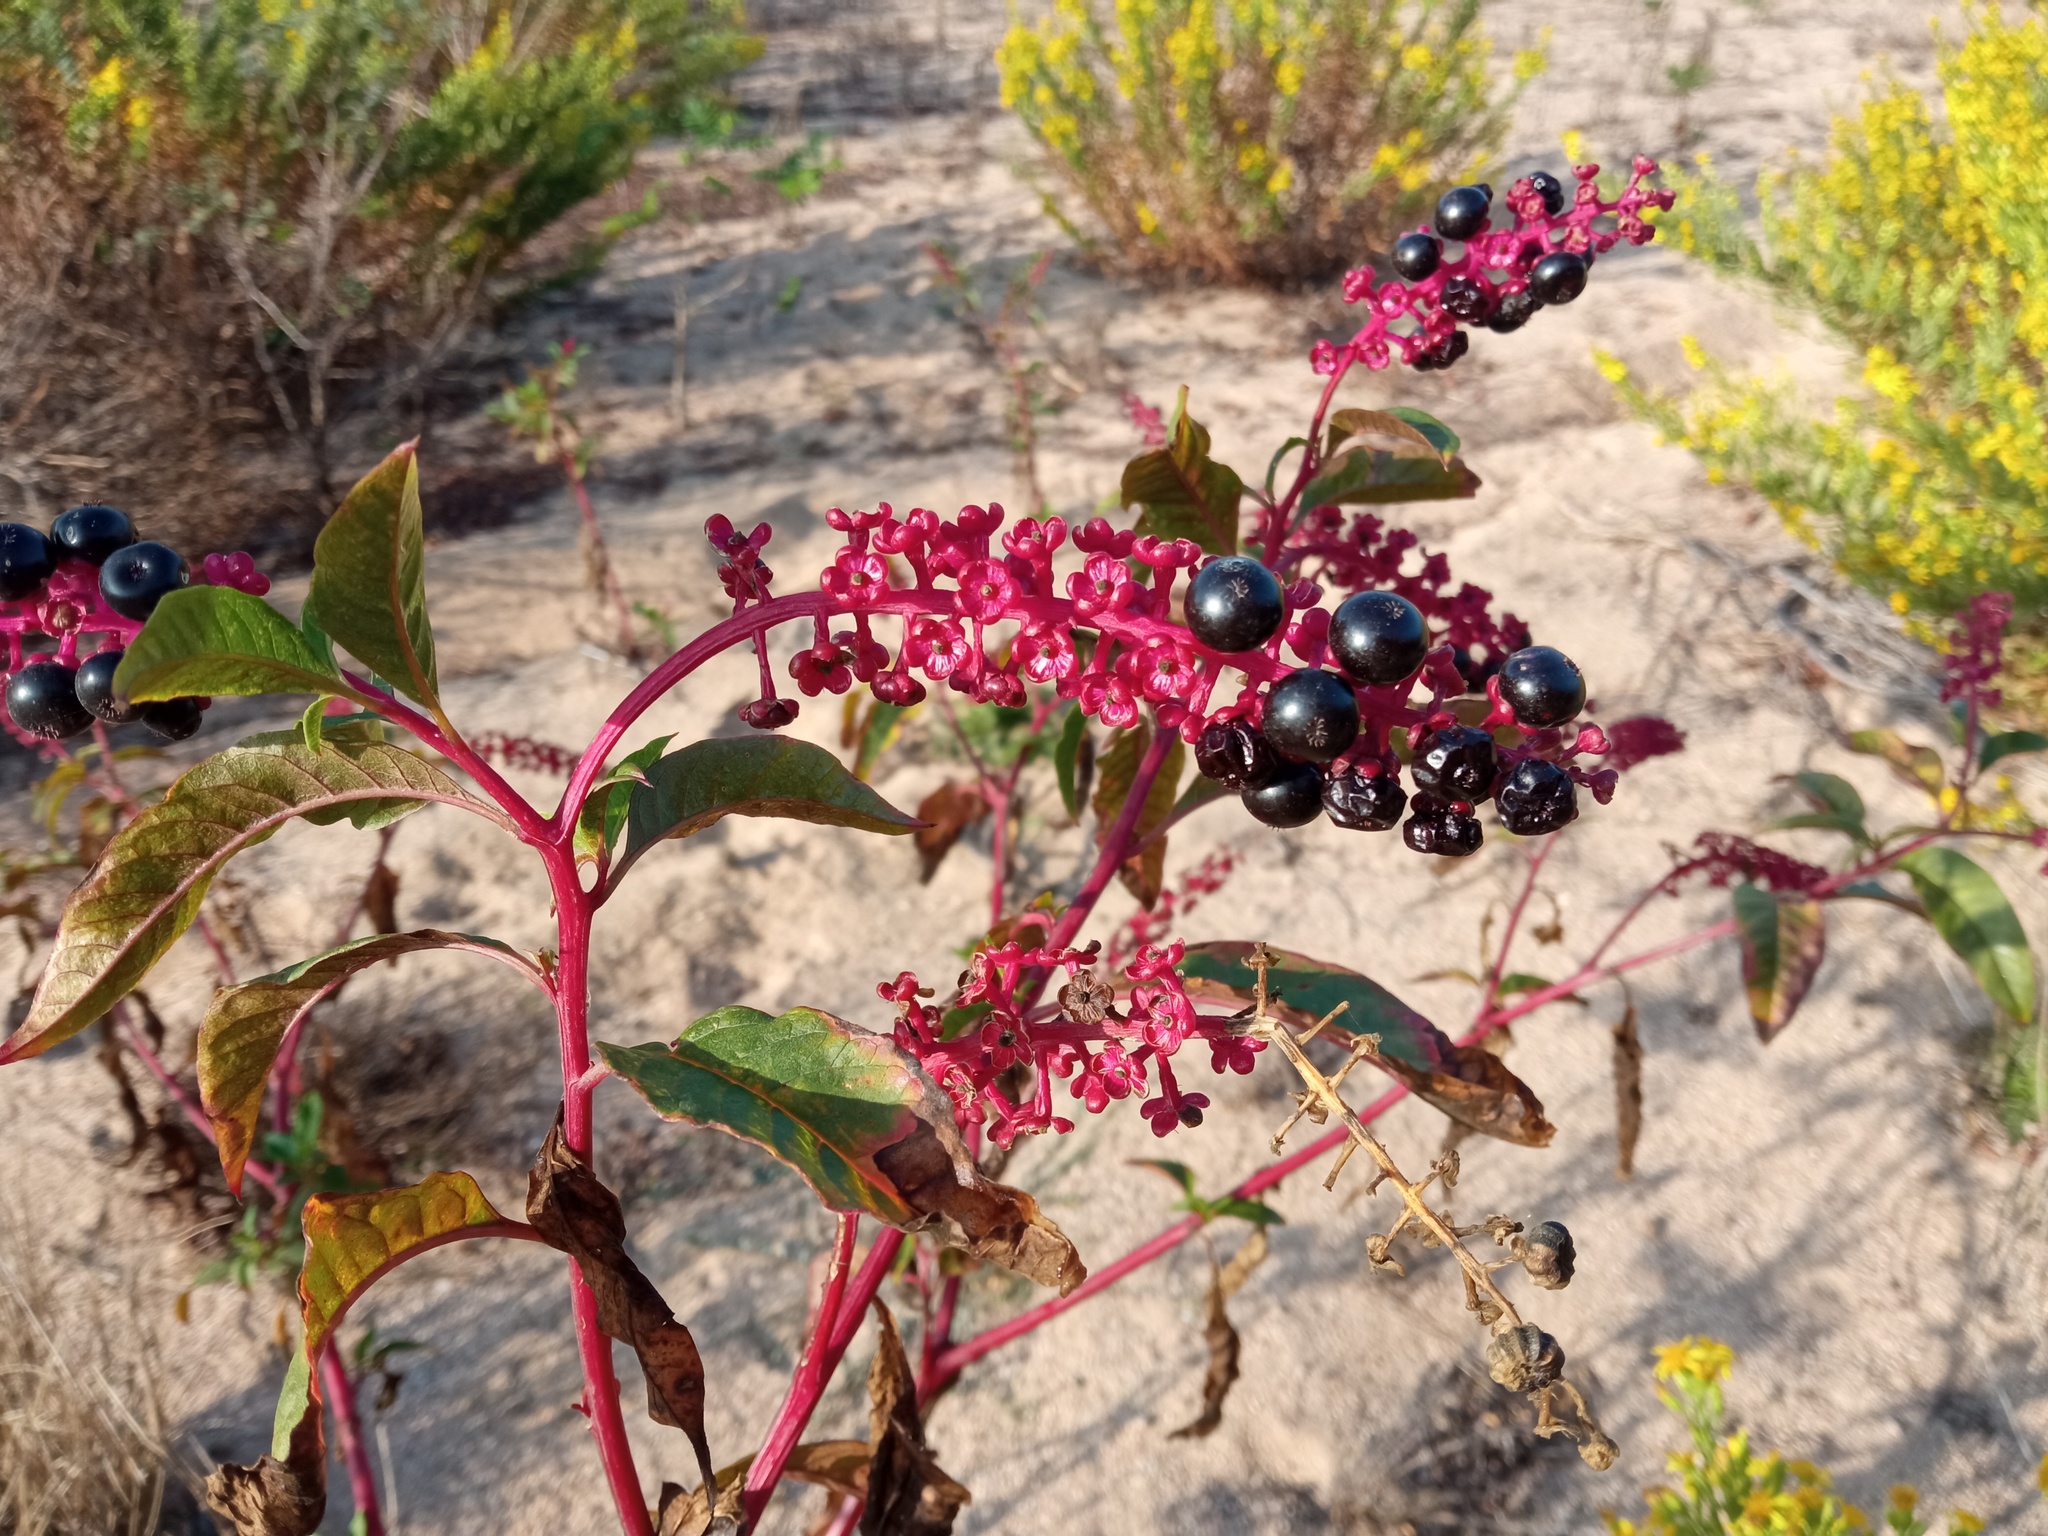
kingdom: Plantae
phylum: Tracheophyta
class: Magnoliopsida
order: Caryophyllales
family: Phytolaccaceae
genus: Phytolacca
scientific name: Phytolacca americana
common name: American pokeweed
